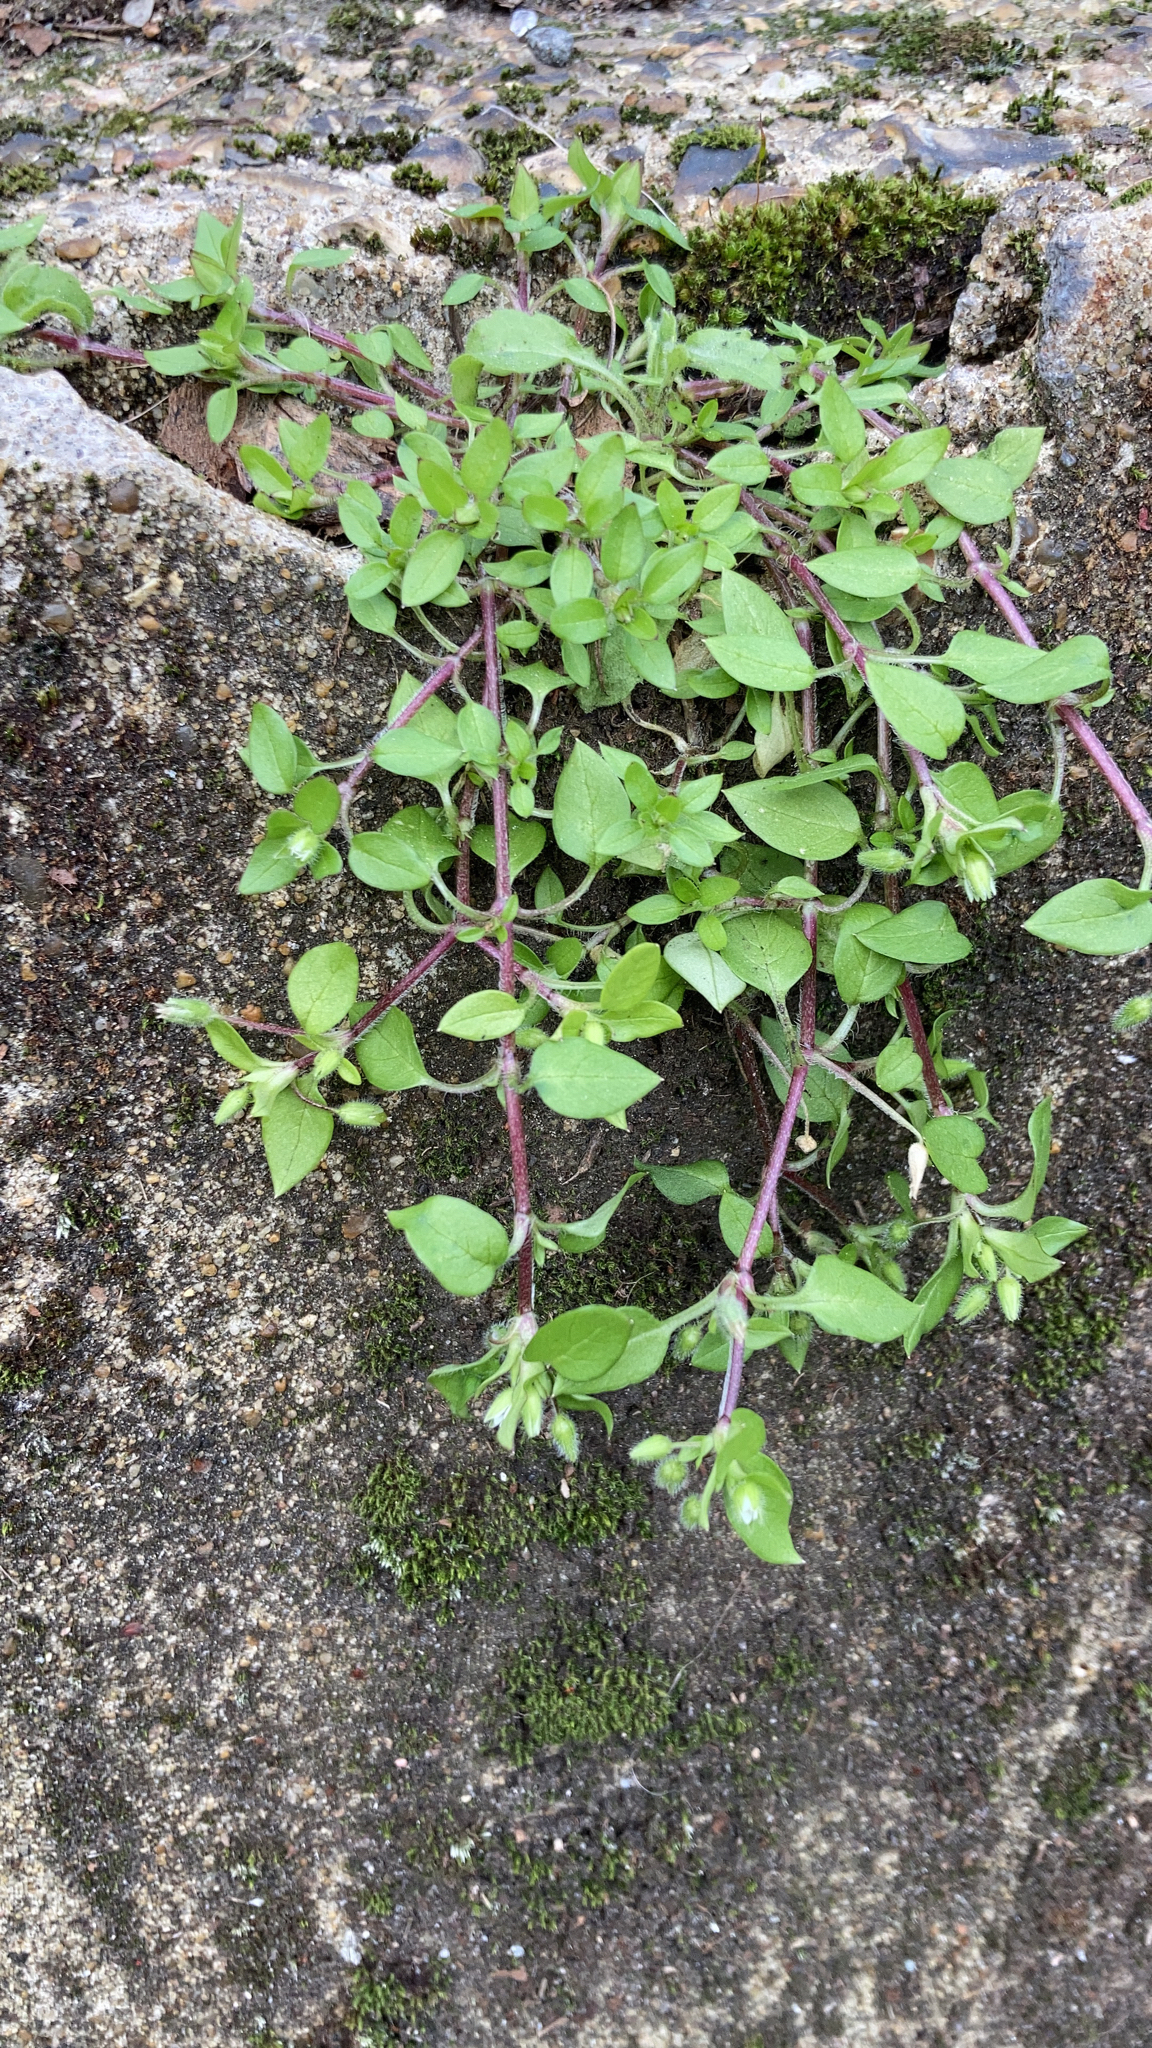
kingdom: Plantae
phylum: Tracheophyta
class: Magnoliopsida
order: Caryophyllales
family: Caryophyllaceae
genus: Stellaria
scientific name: Stellaria media
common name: Common chickweed
